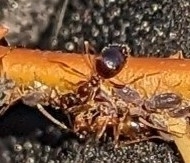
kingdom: Animalia
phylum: Arthropoda
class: Insecta
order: Hymenoptera
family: Formicidae
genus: Prenolepis
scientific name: Prenolepis imparis
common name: Small honey ant
